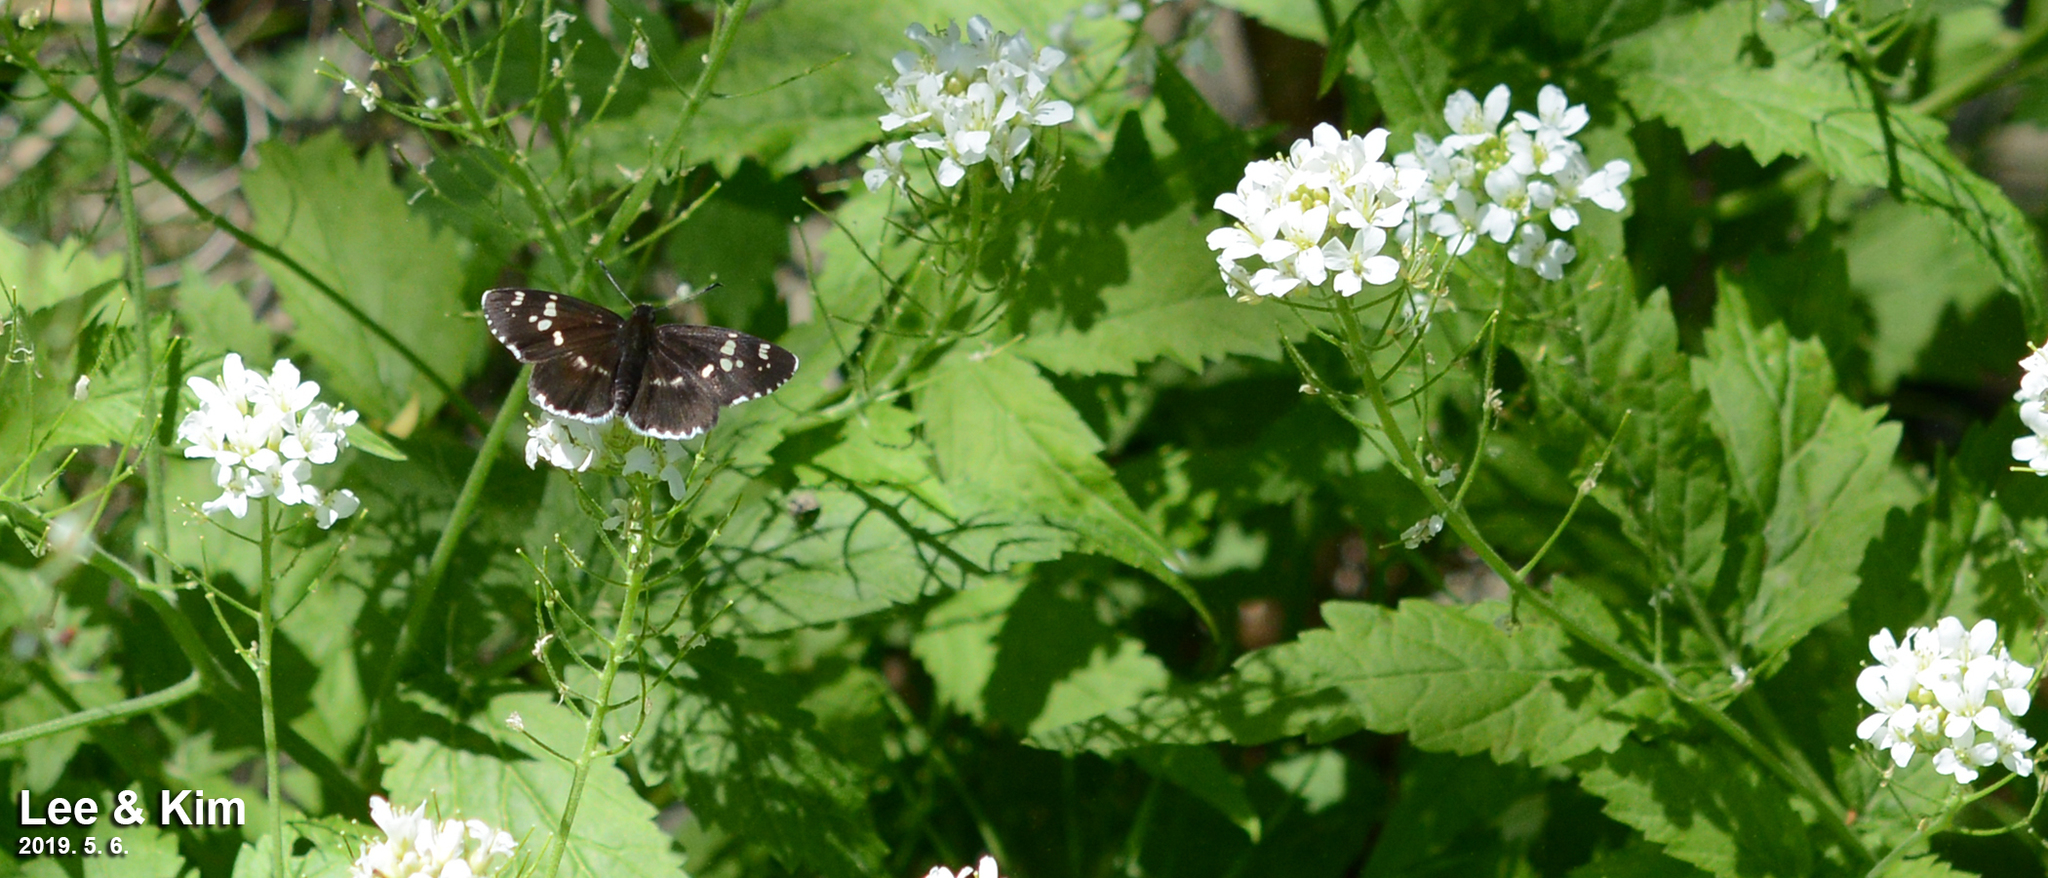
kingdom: Animalia
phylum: Arthropoda
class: Insecta
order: Lepidoptera
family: Hesperiidae
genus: Daimio
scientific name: Daimio tethys
